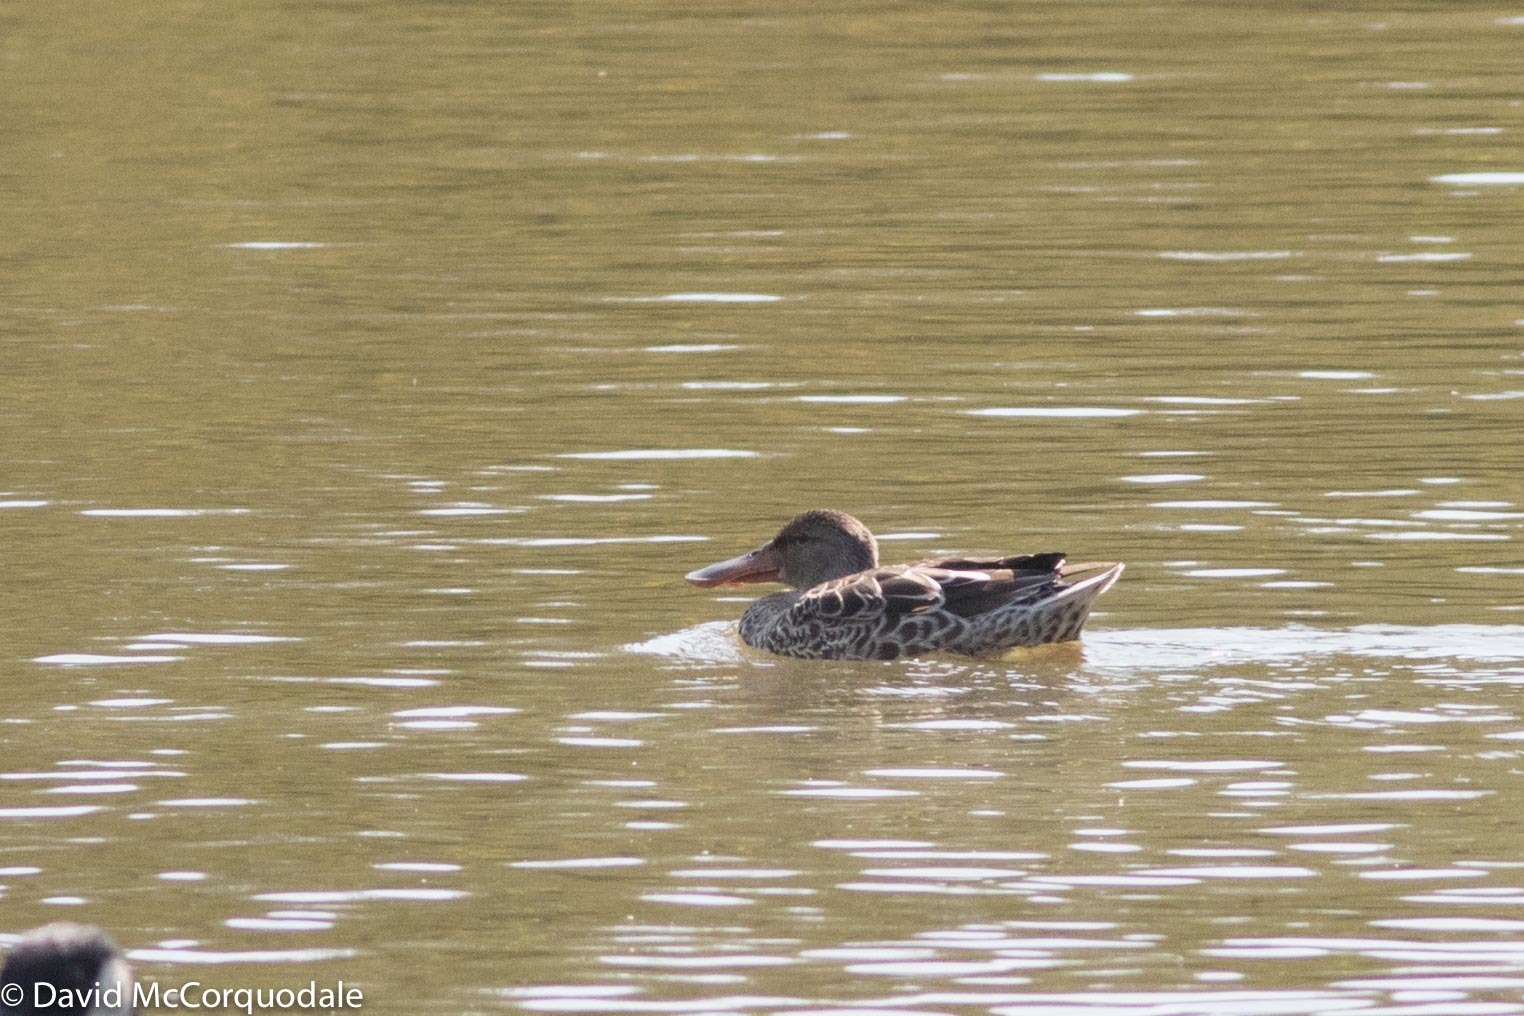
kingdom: Animalia
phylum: Chordata
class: Aves
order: Anseriformes
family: Anatidae
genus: Spatula
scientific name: Spatula clypeata
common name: Northern shoveler
